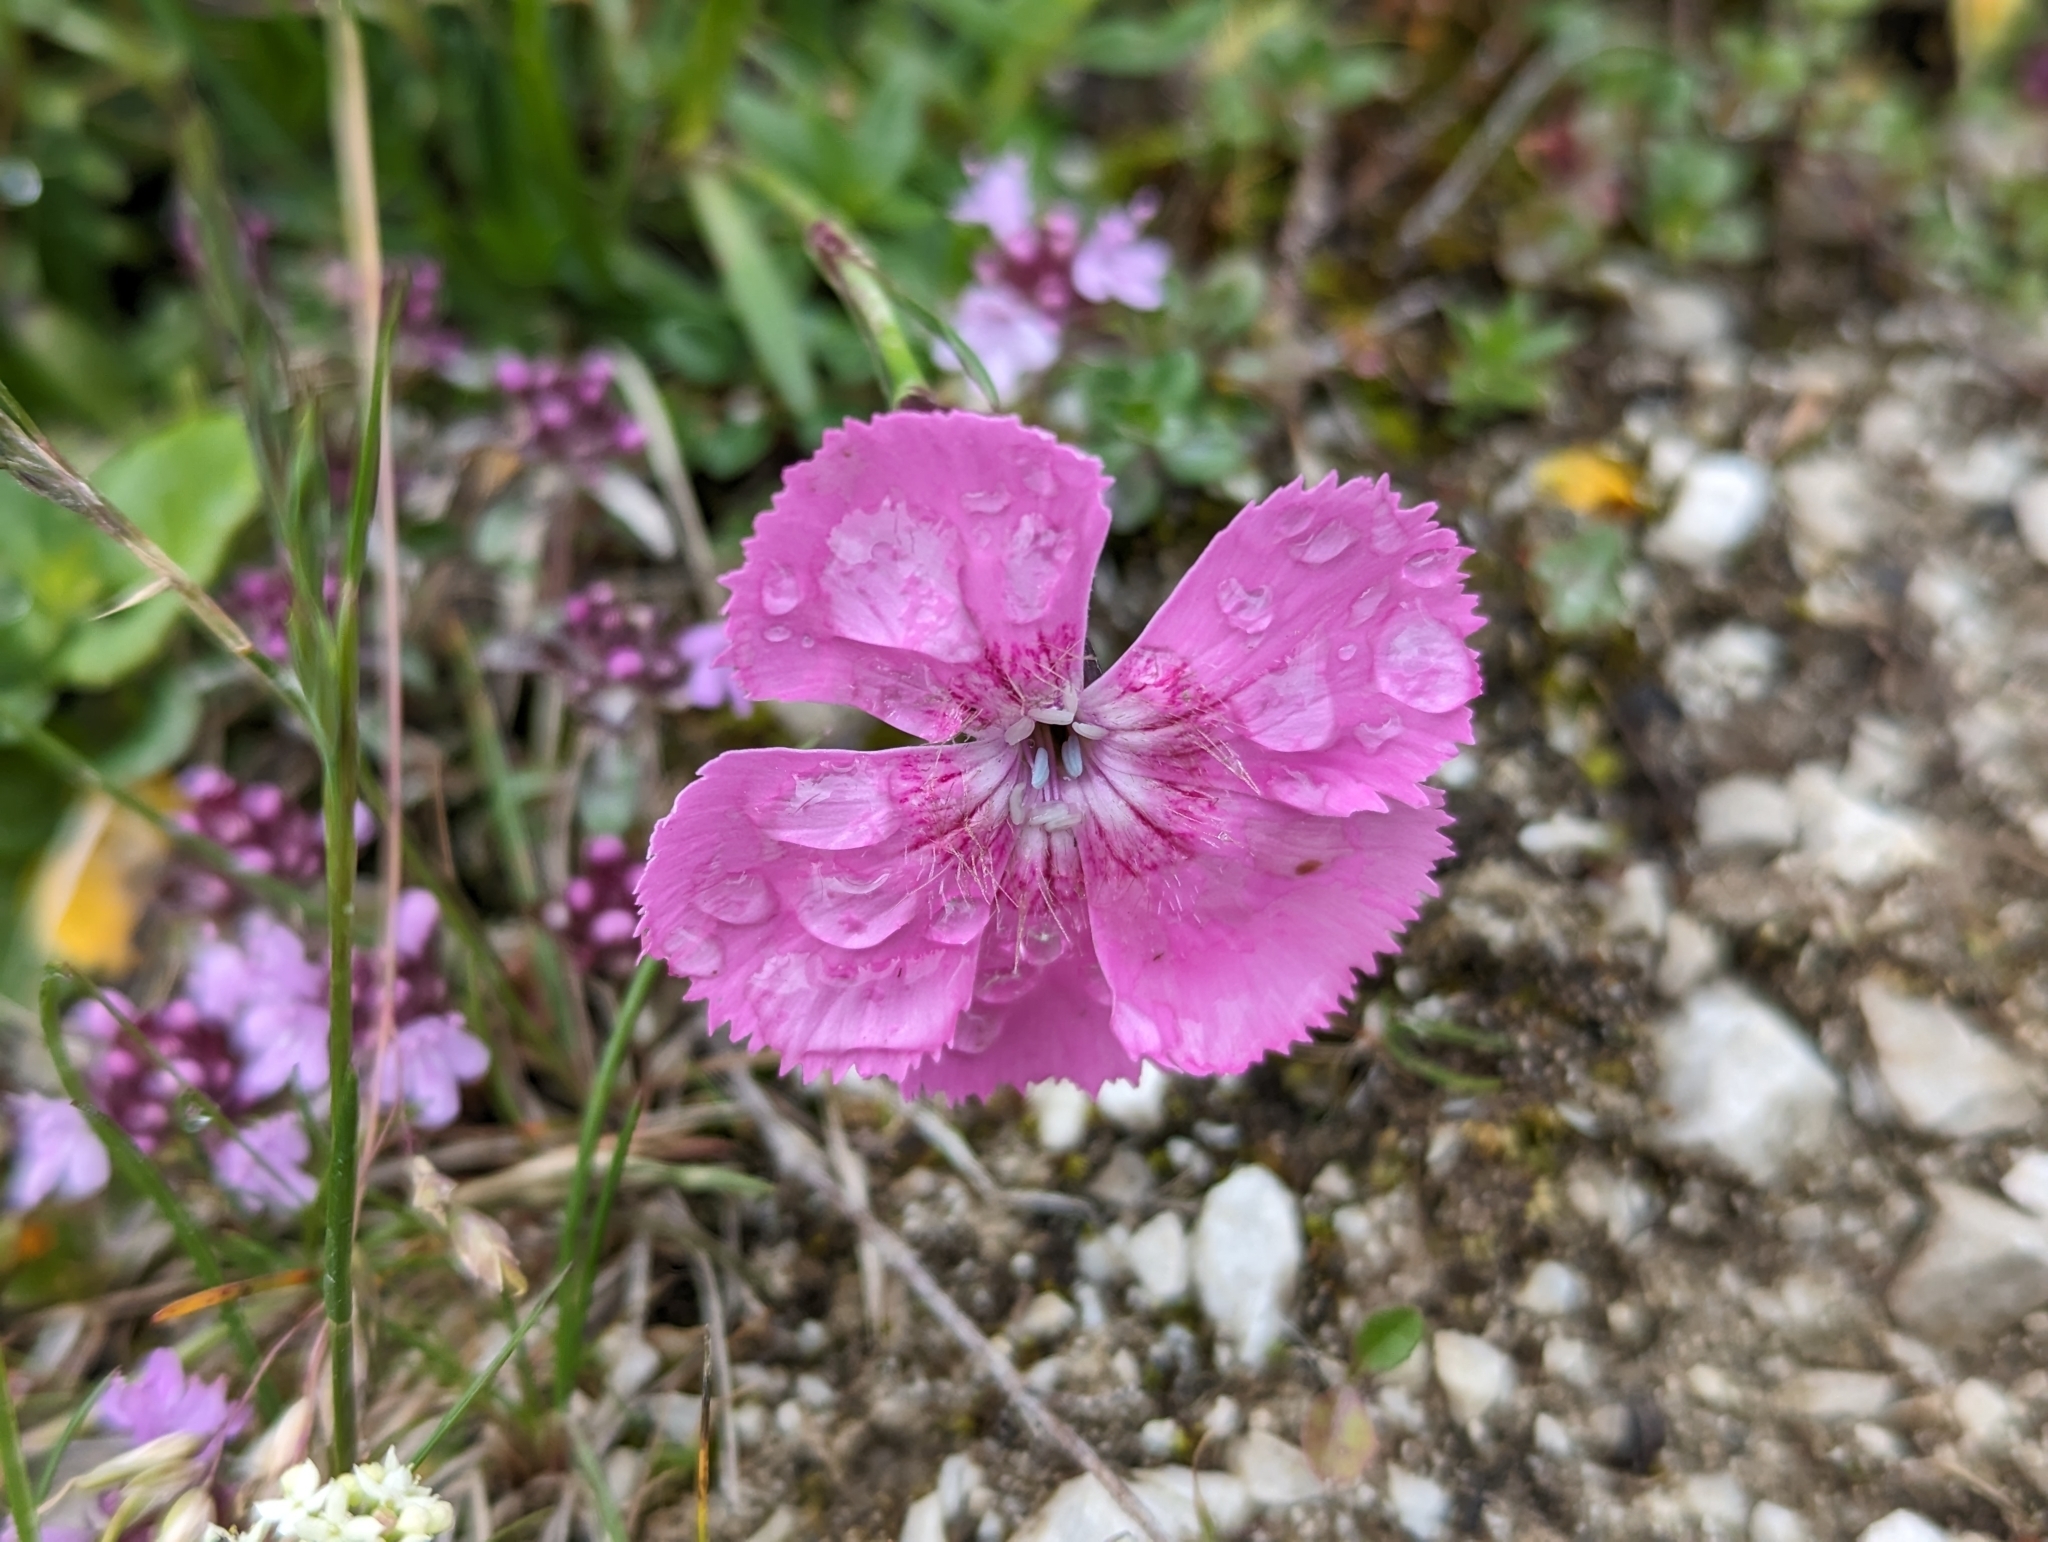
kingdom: Plantae
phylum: Tracheophyta
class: Magnoliopsida
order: Caryophyllales
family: Caryophyllaceae
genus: Dianthus
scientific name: Dianthus alpinus
